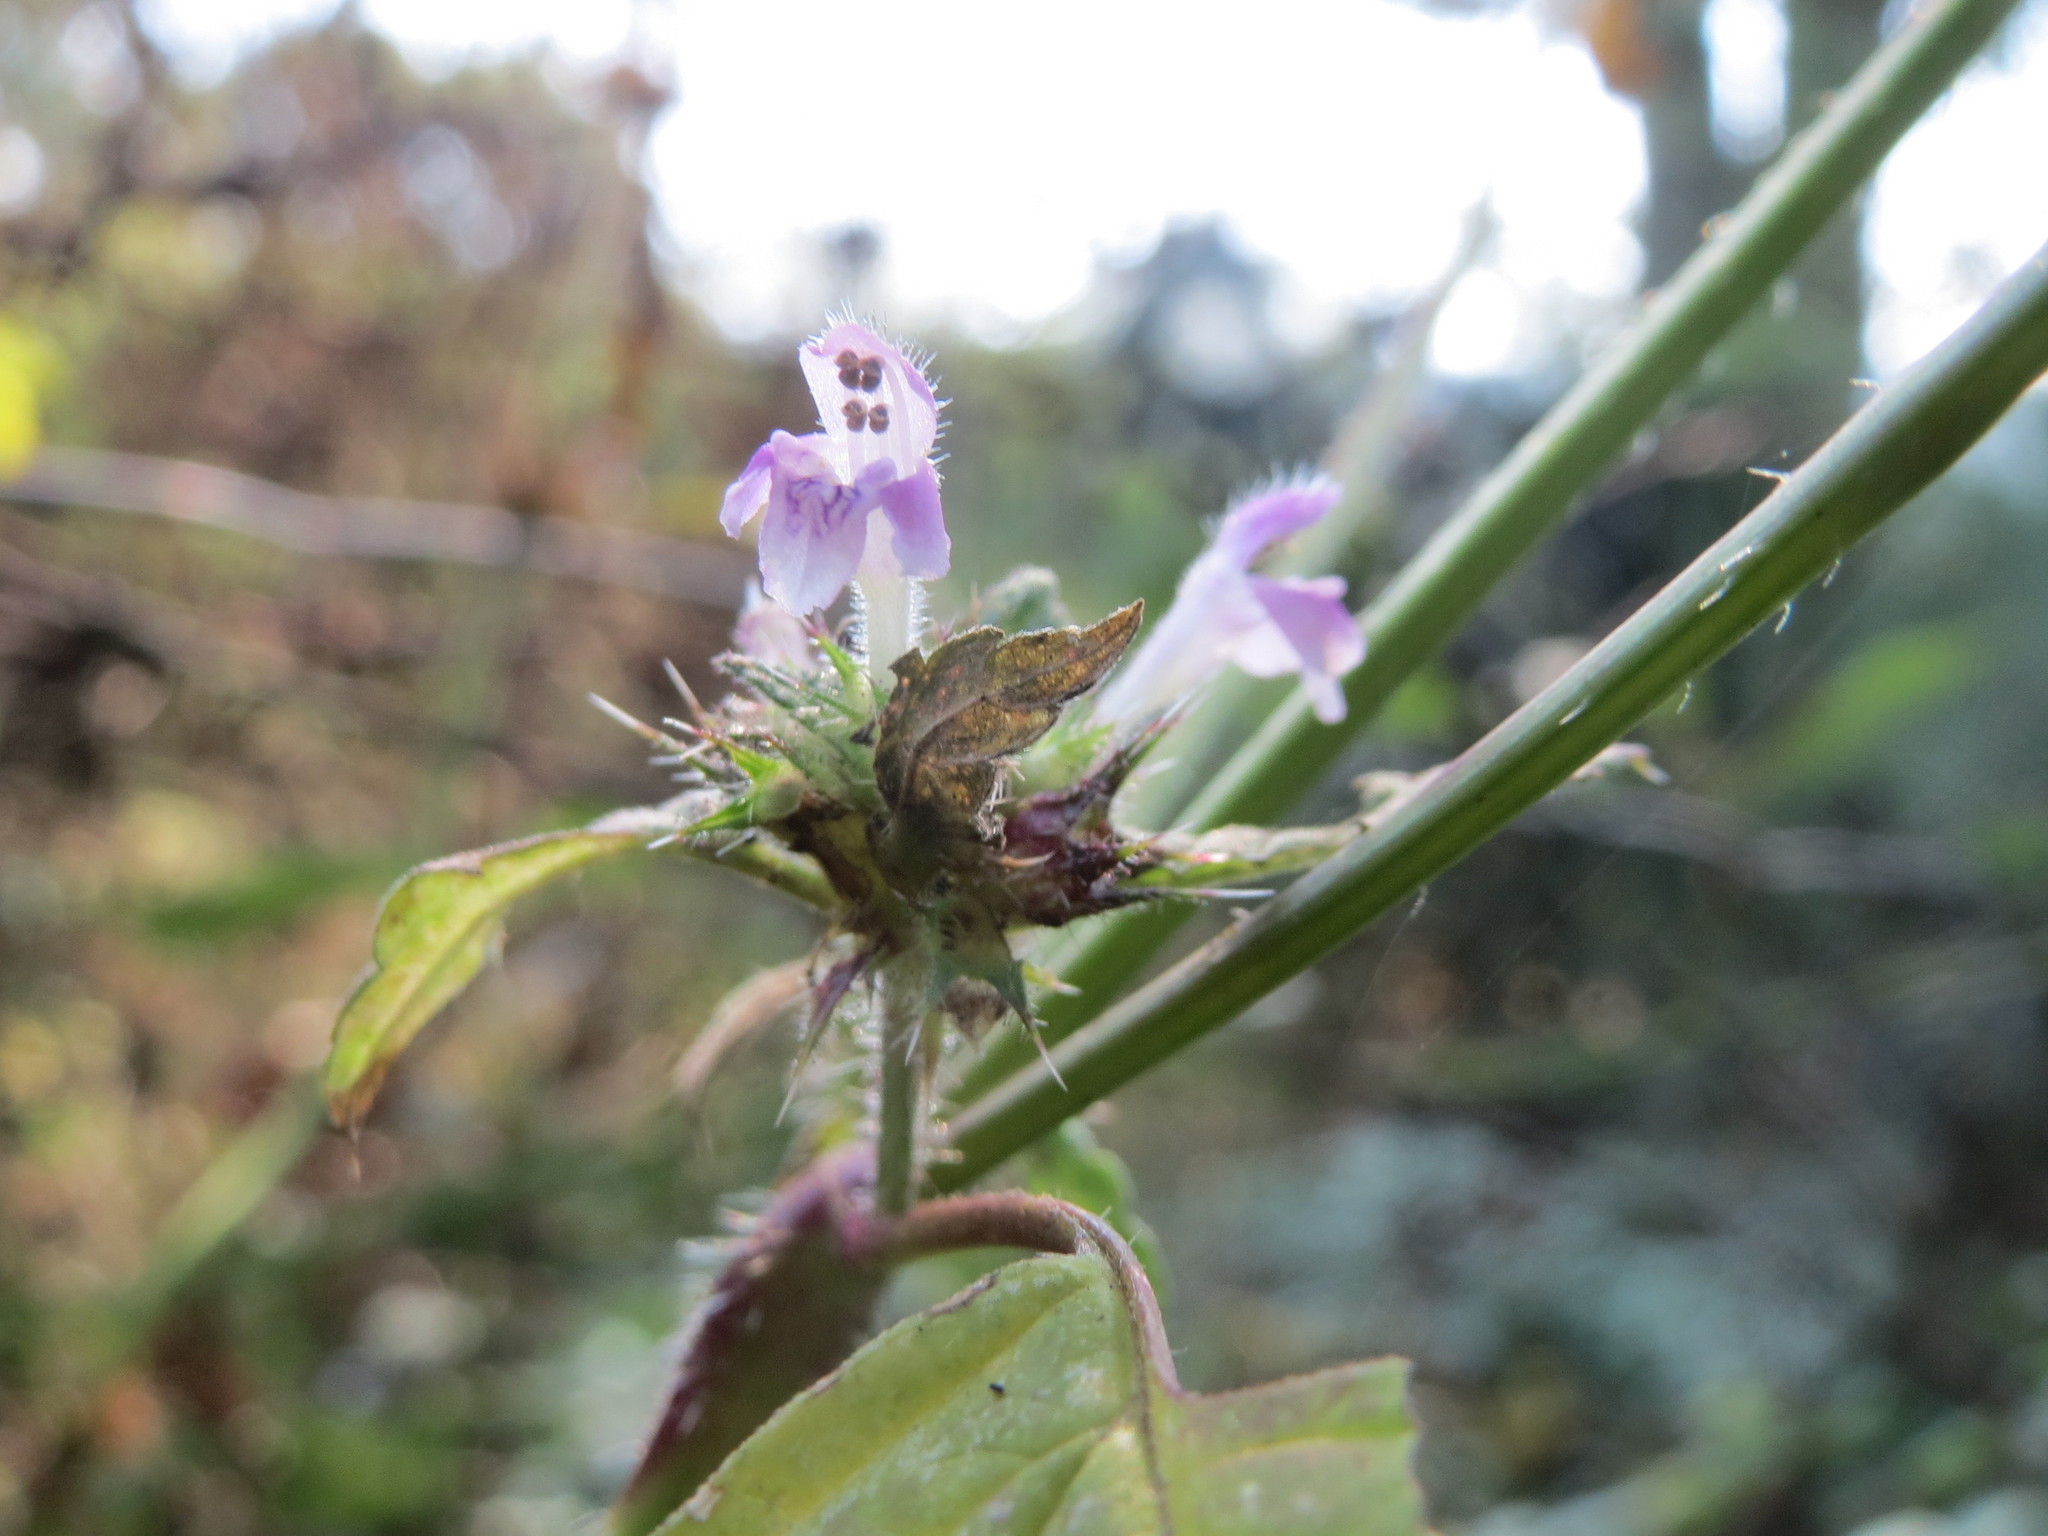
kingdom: Plantae
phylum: Tracheophyta
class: Magnoliopsida
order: Lamiales
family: Lamiaceae
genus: Galeopsis
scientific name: Galeopsis tetrahit
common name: Common hemp-nettle
